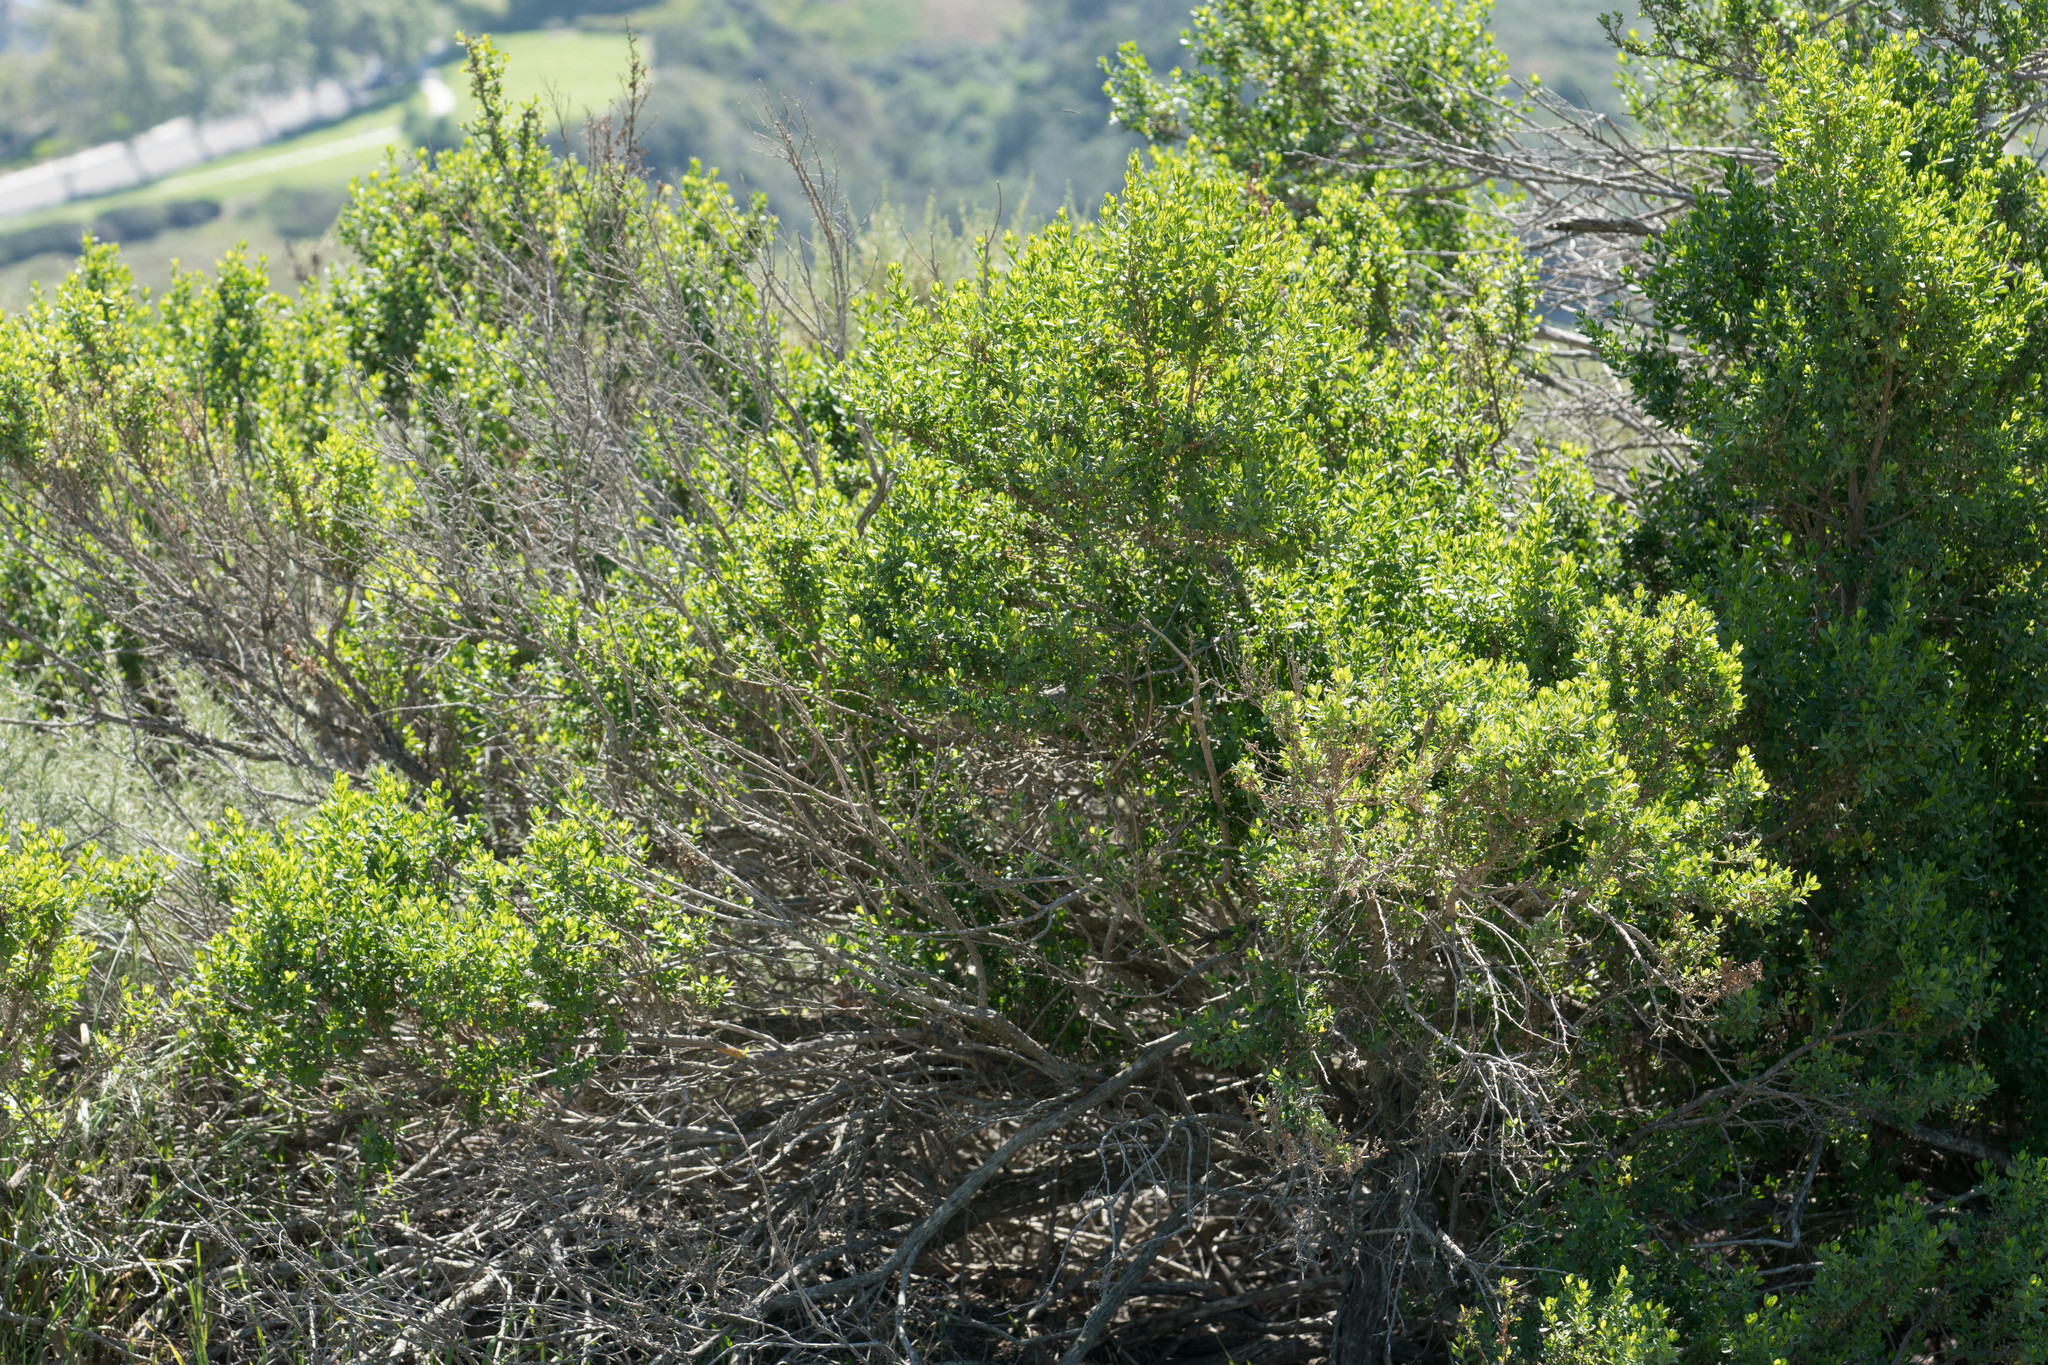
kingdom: Plantae
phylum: Tracheophyta
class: Magnoliopsida
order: Asterales
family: Asteraceae
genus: Baccharis
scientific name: Baccharis pilularis
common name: Coyotebrush
